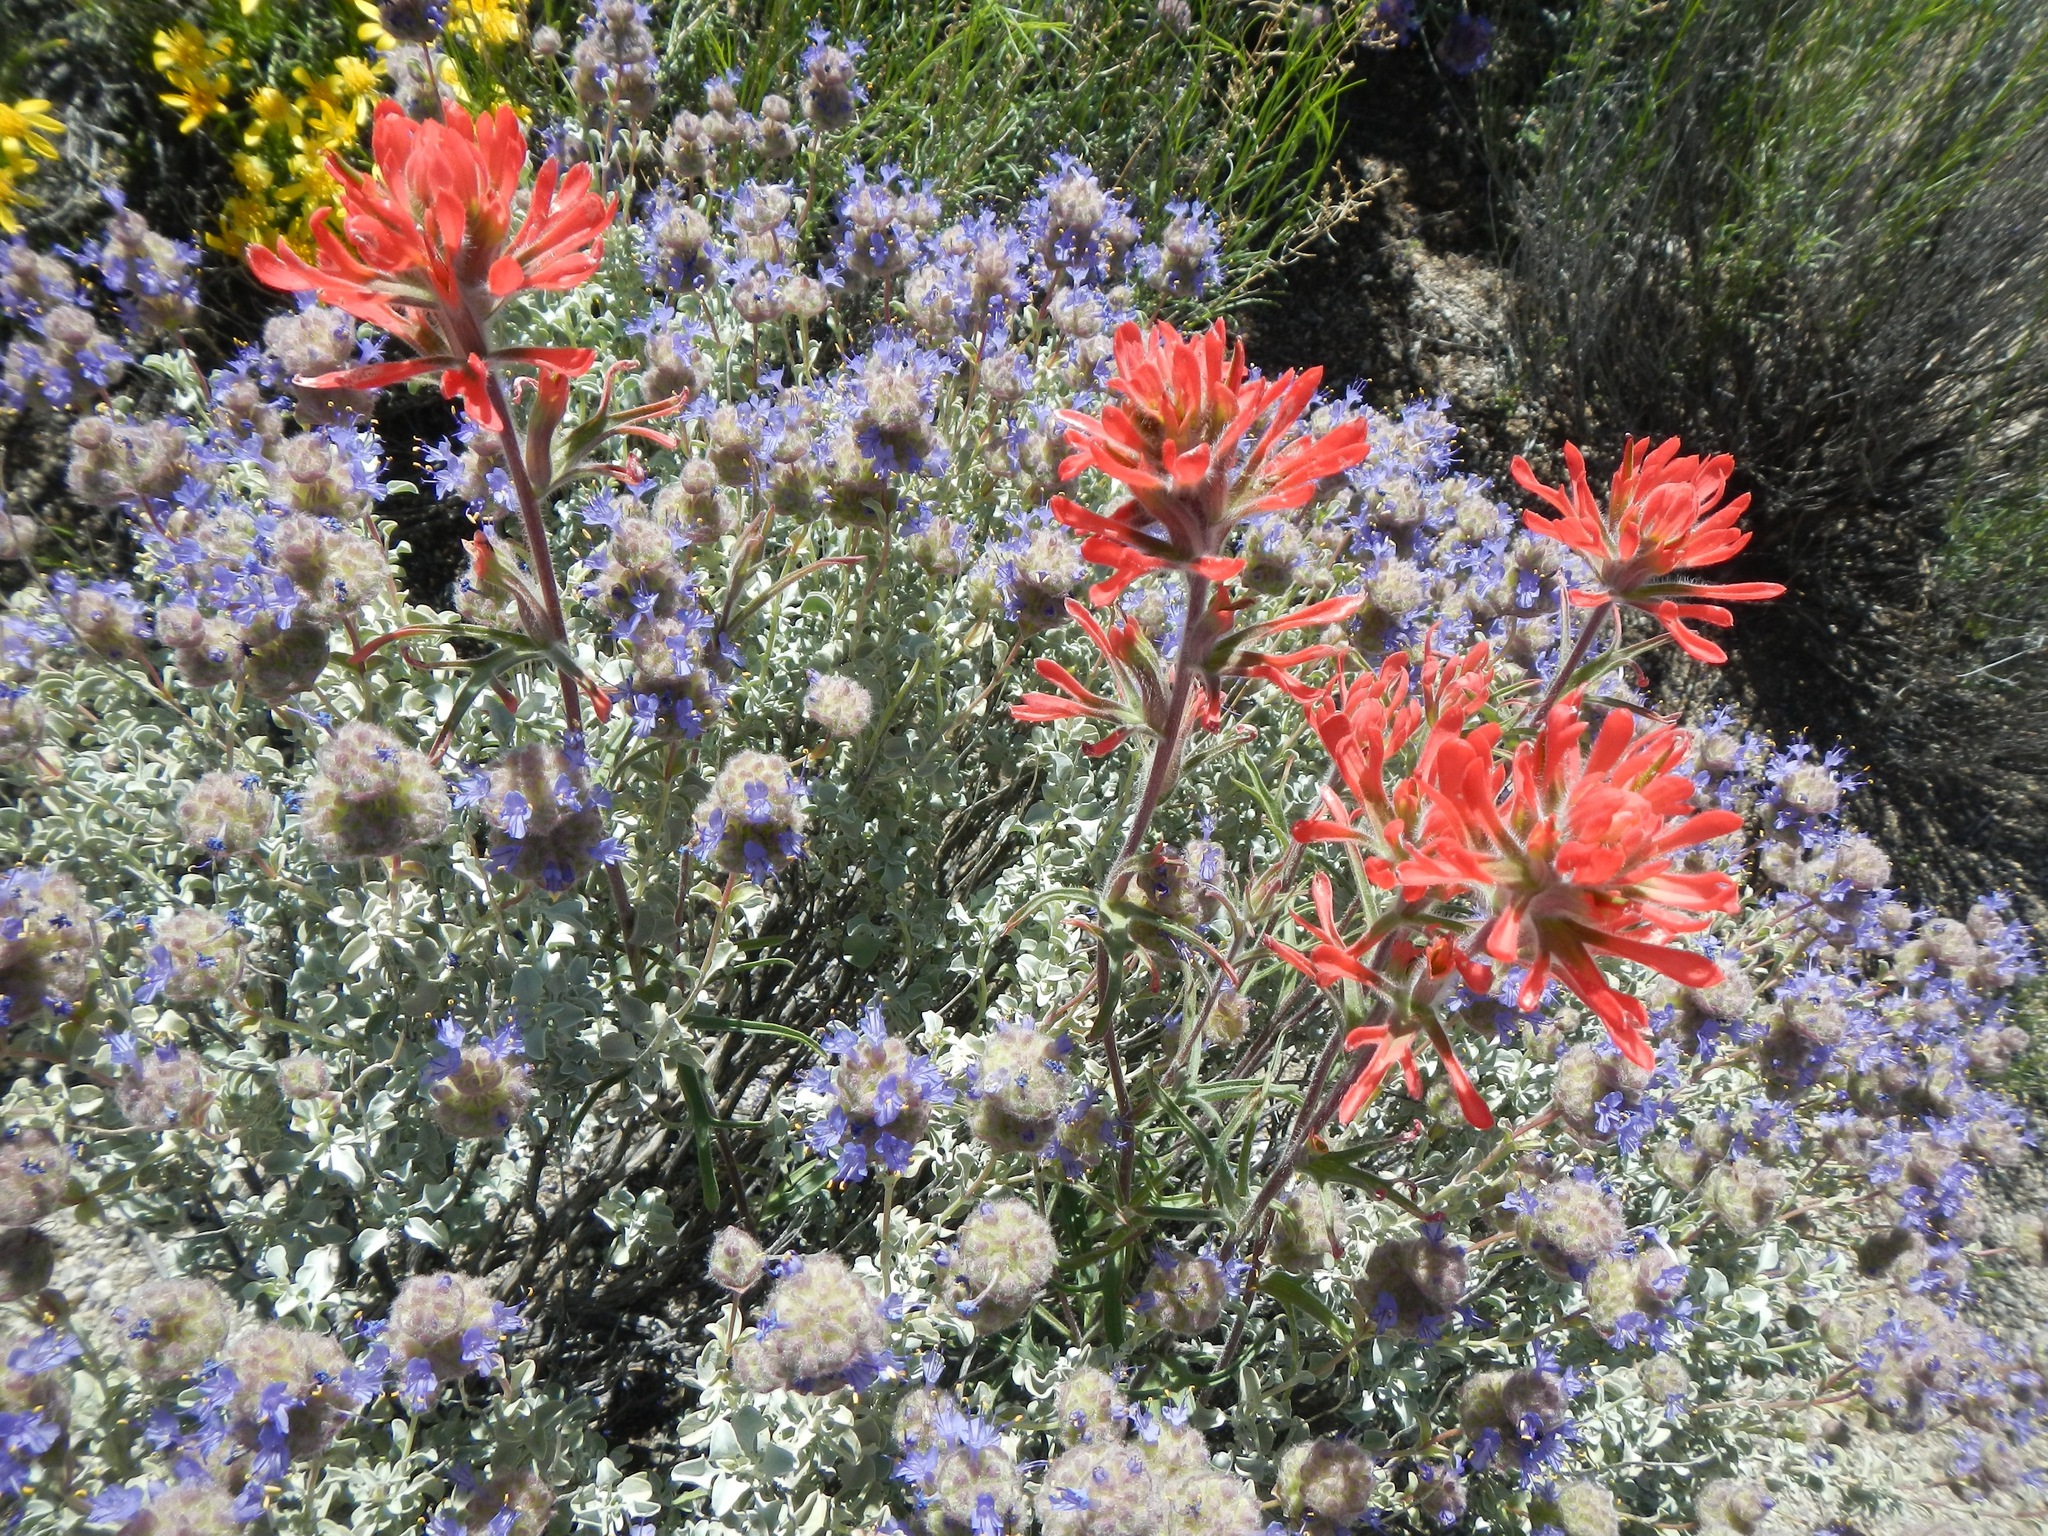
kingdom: Plantae
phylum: Tracheophyta
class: Magnoliopsida
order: Lamiales
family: Orobanchaceae
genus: Castilleja
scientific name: Castilleja chromosa
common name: Desert paintbrush
